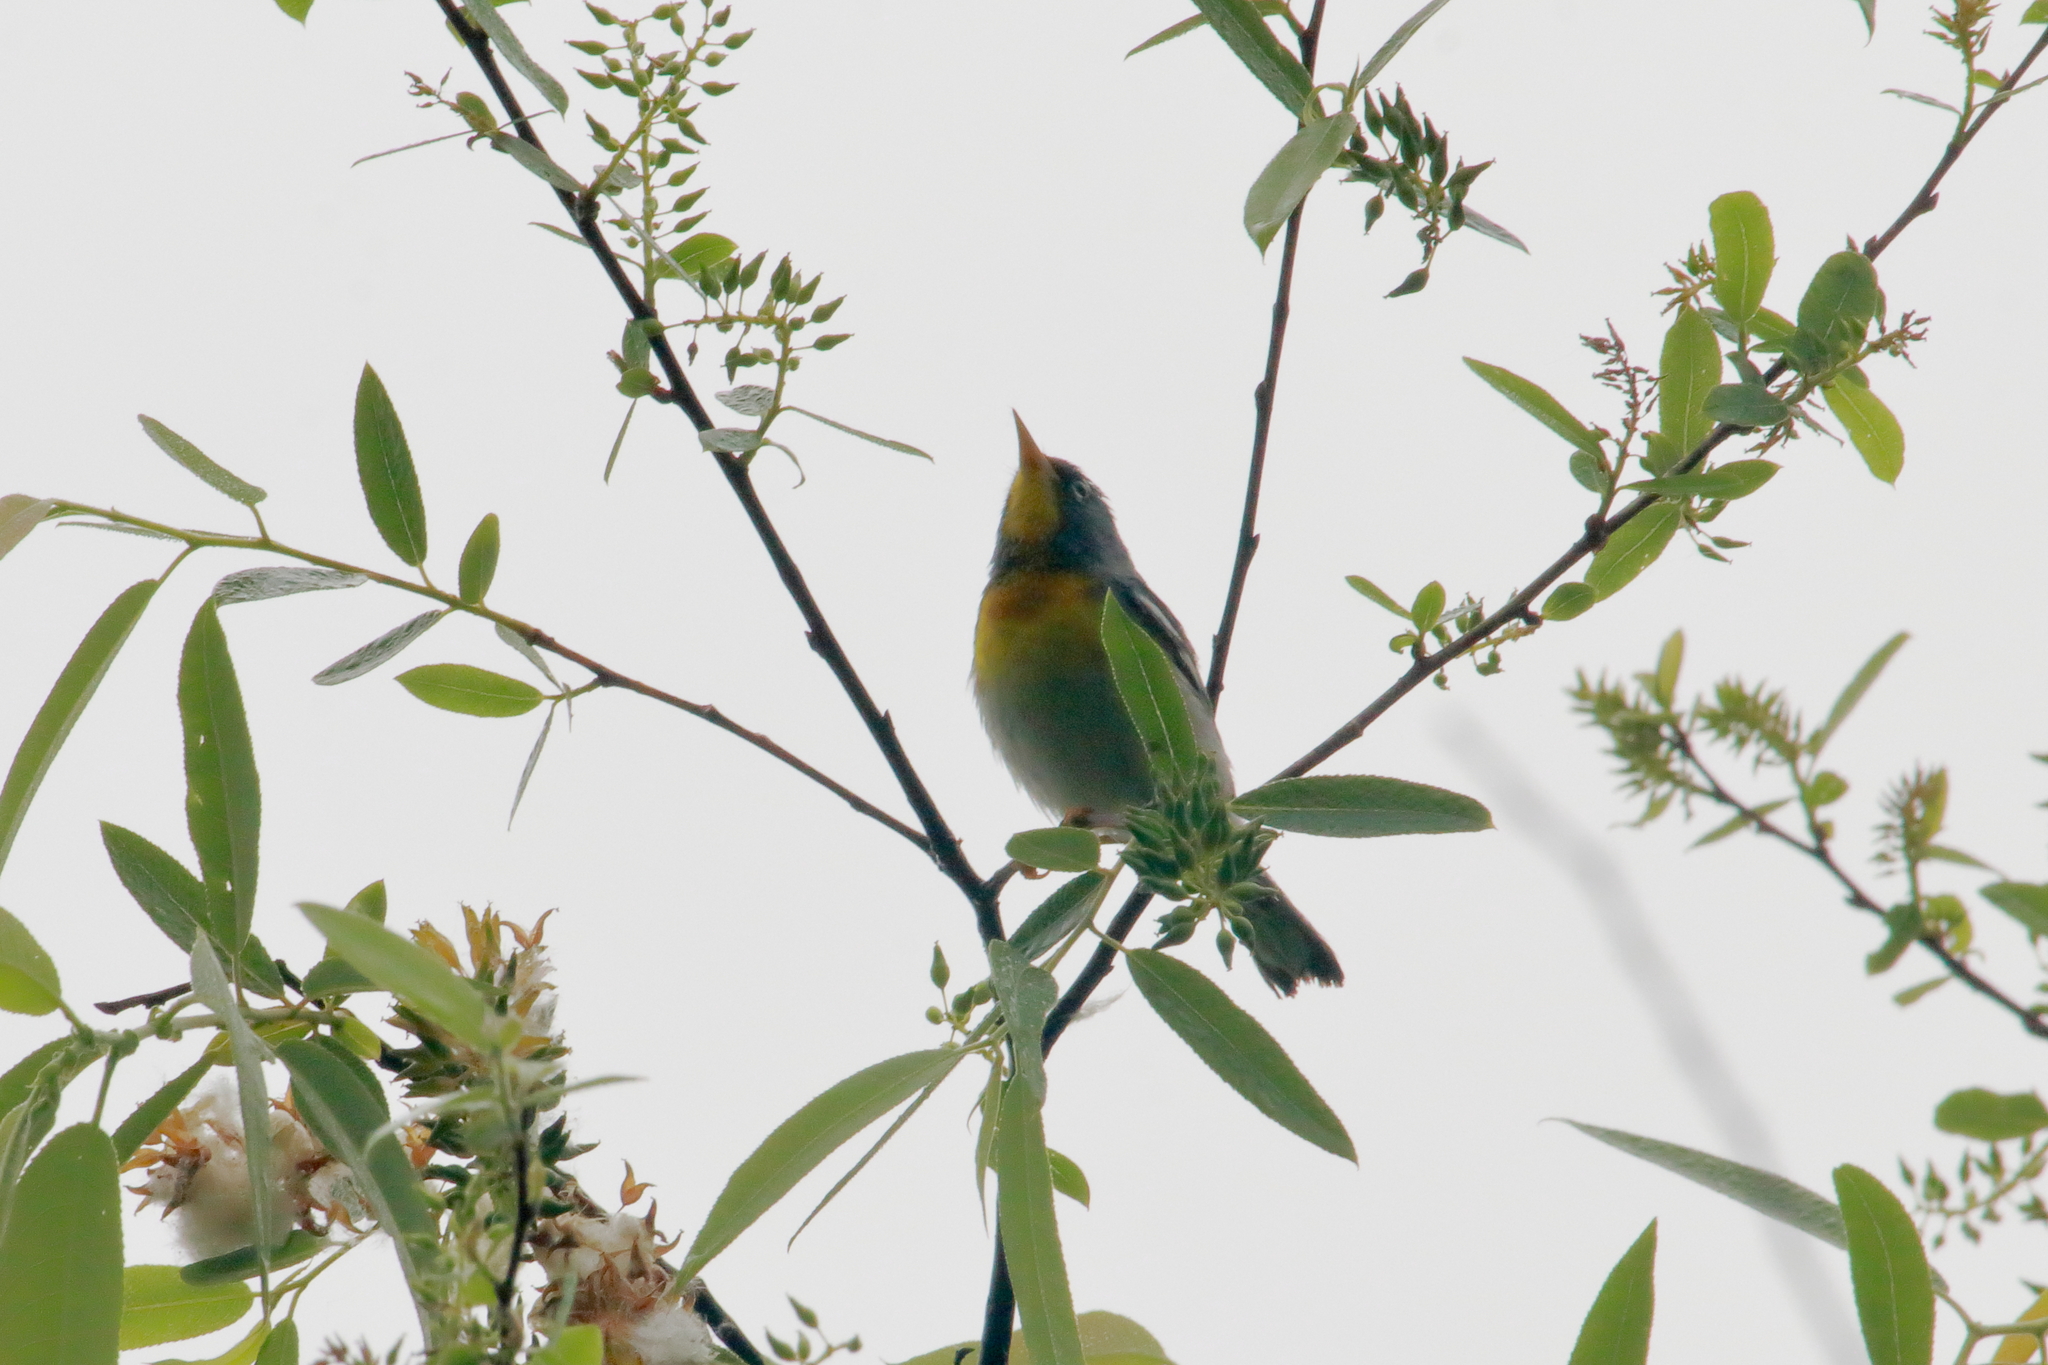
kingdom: Animalia
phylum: Chordata
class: Aves
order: Passeriformes
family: Parulidae
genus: Setophaga
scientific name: Setophaga americana
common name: Northern parula
